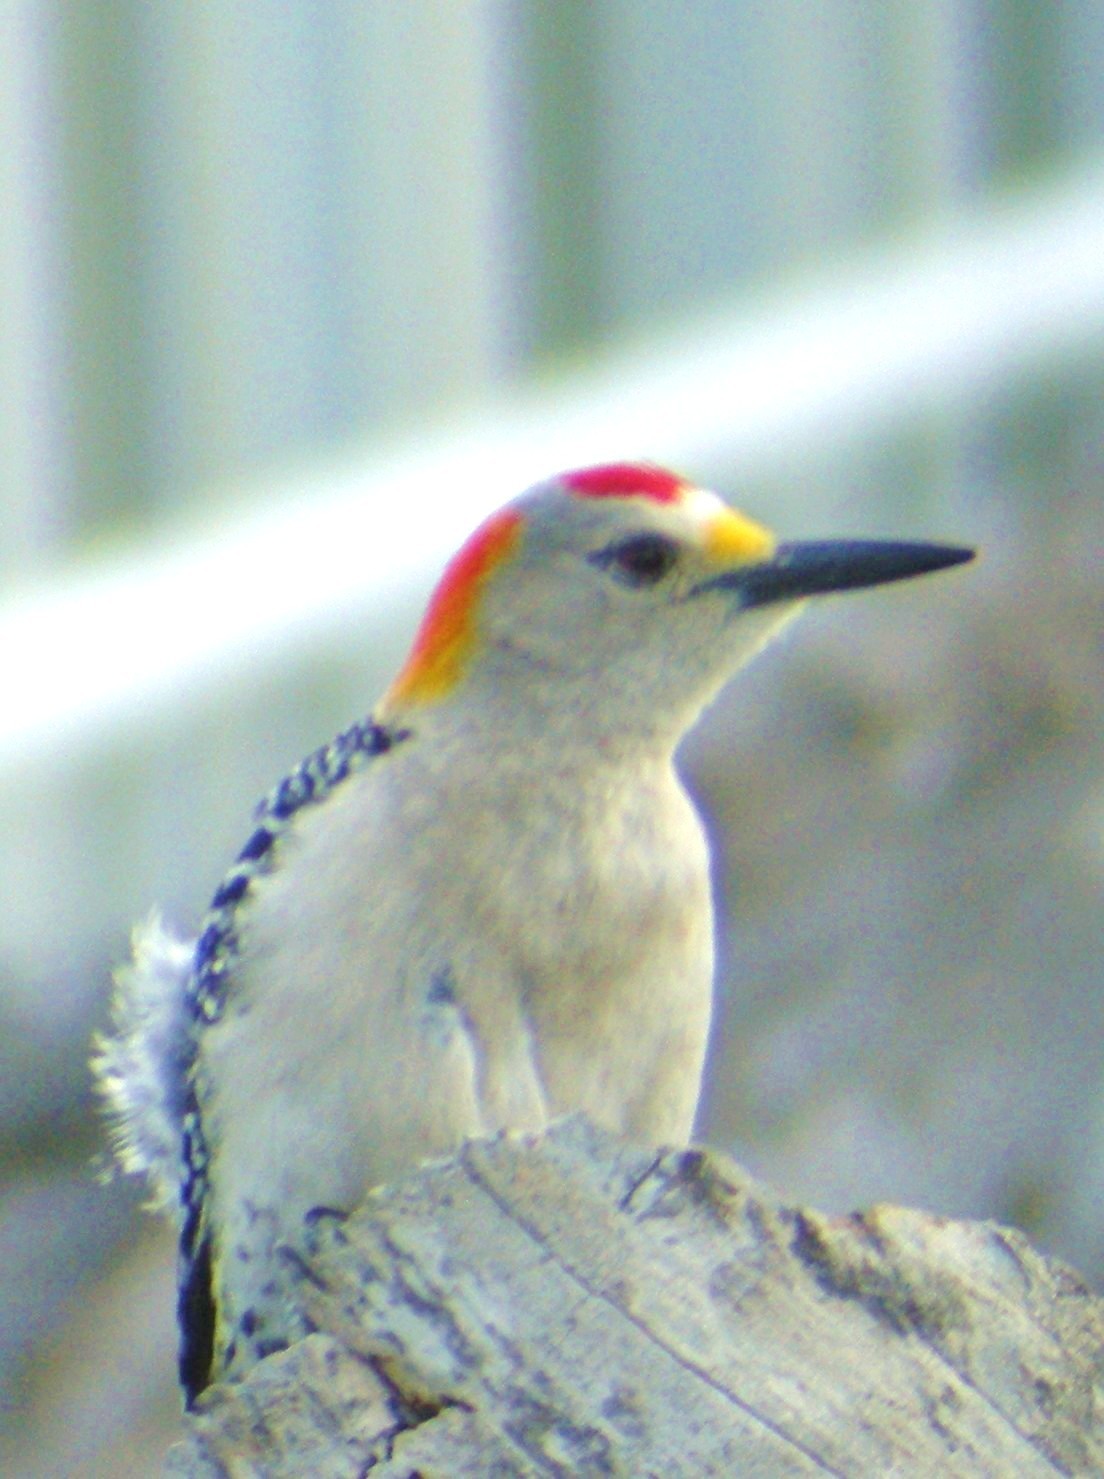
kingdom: Animalia
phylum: Chordata
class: Aves
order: Piciformes
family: Picidae
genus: Melanerpes
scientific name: Melanerpes aurifrons
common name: Golden-fronted woodpecker
